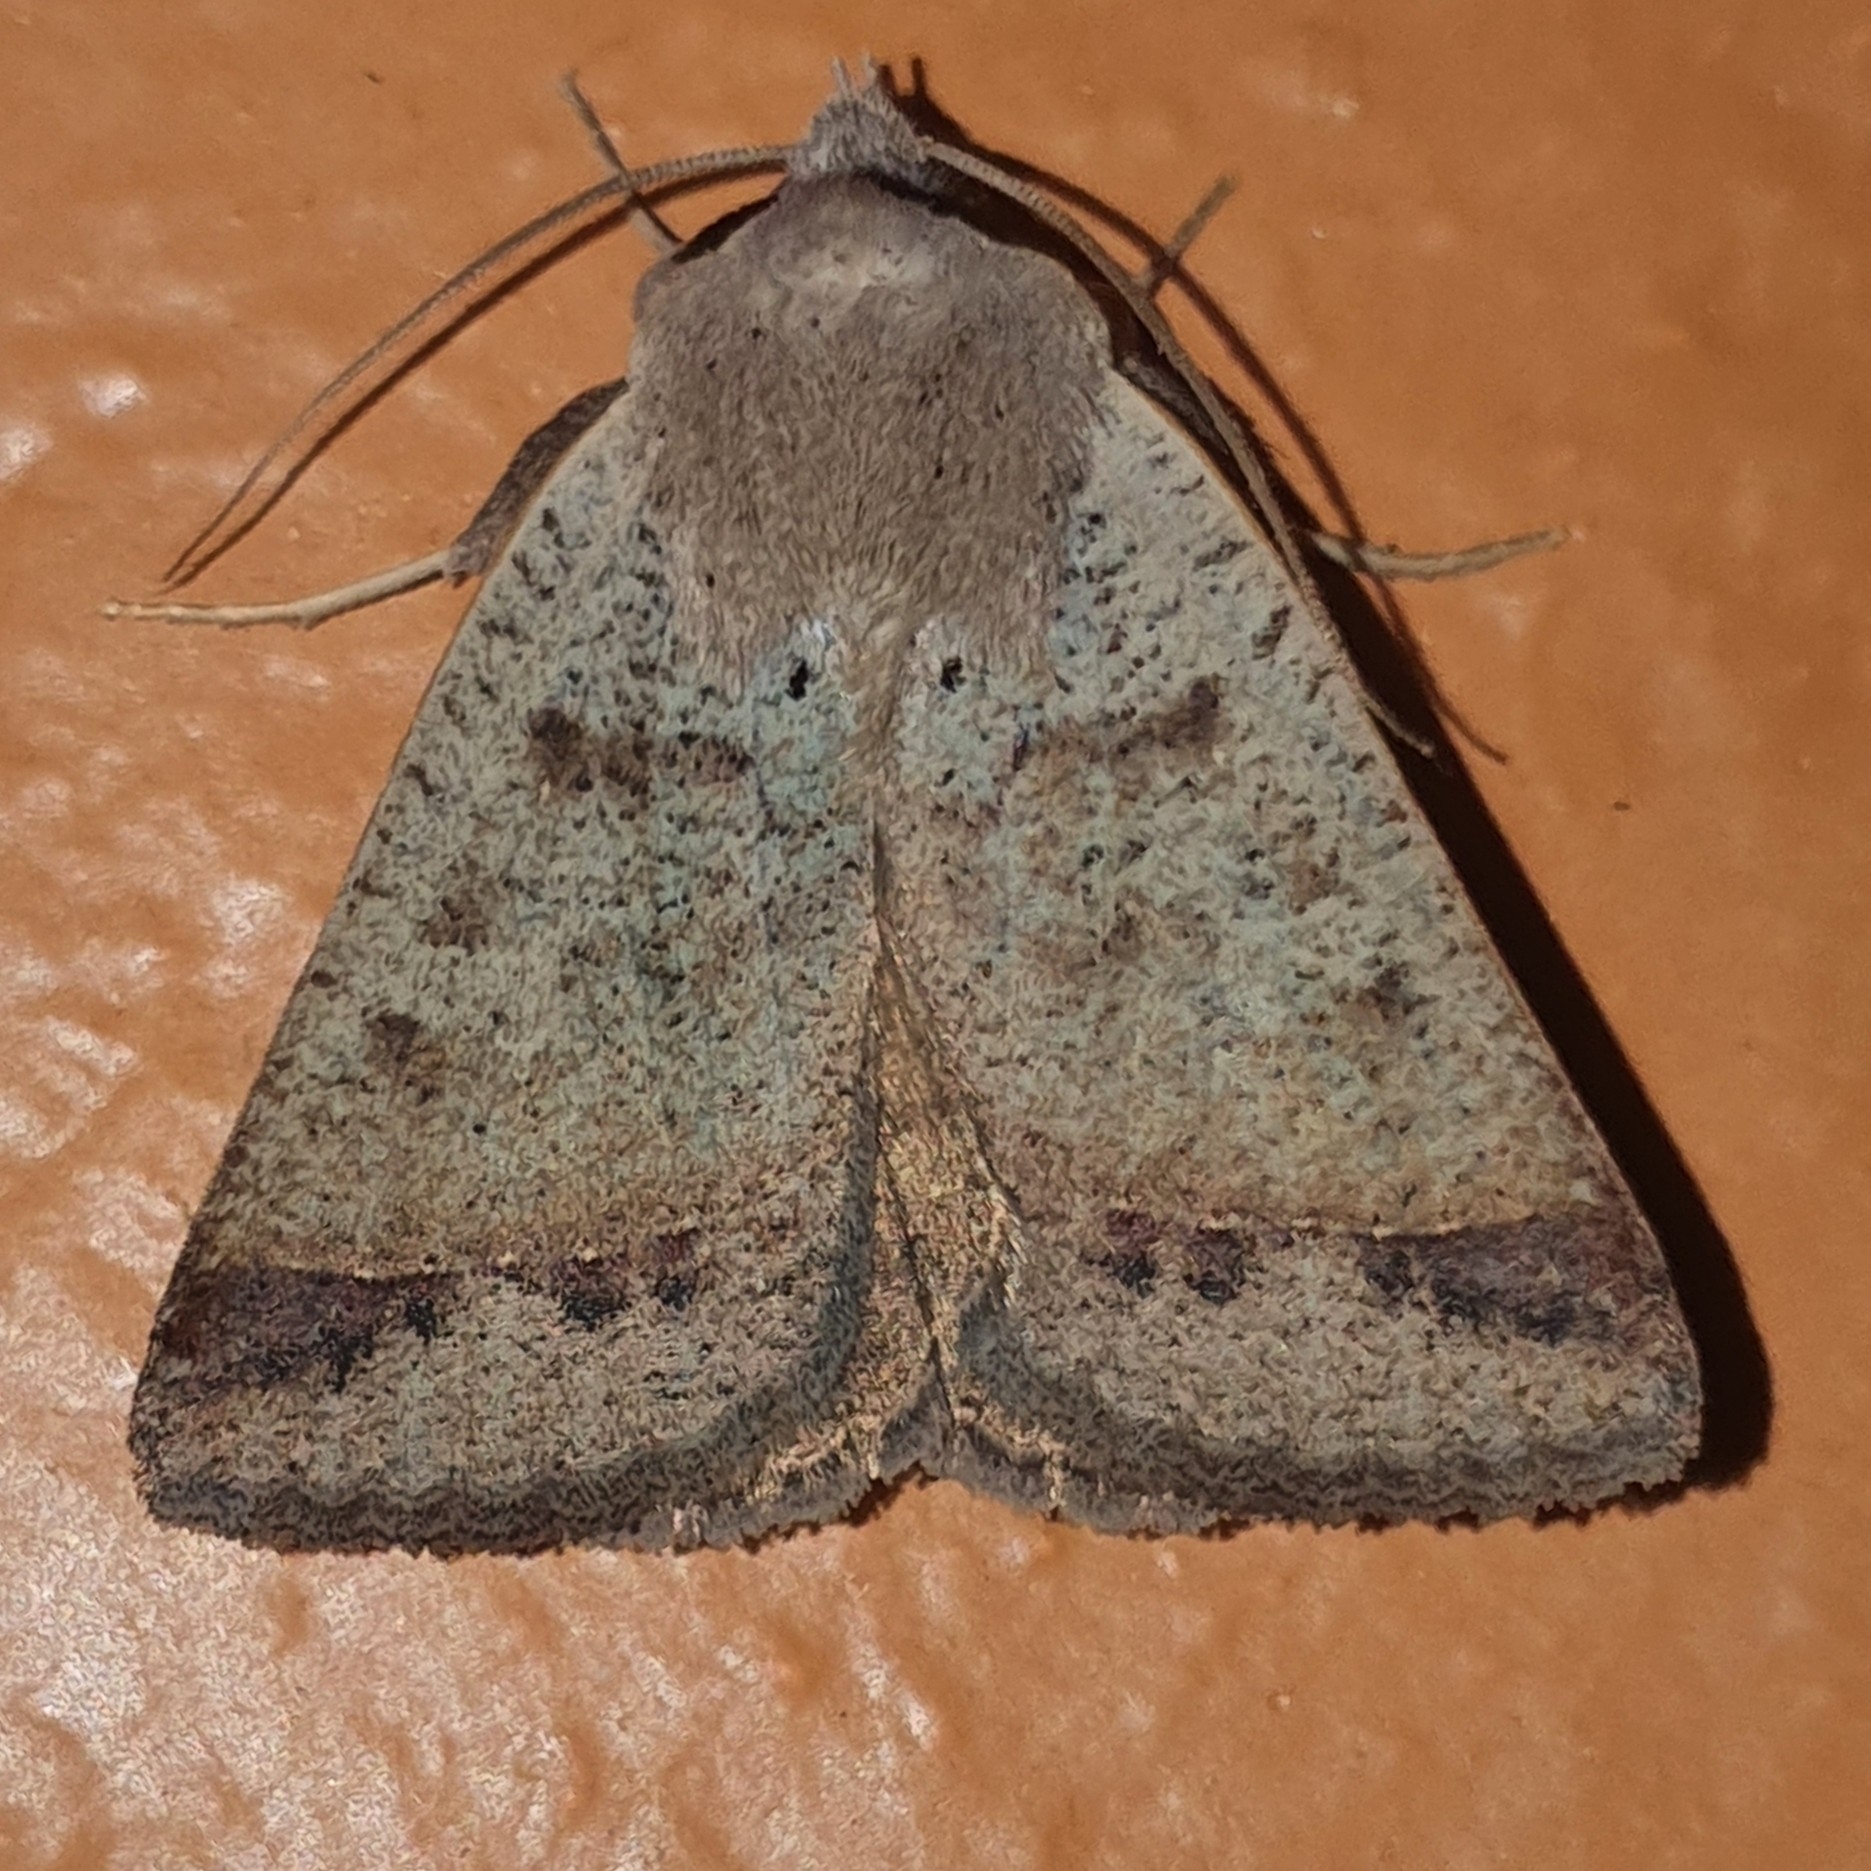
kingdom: Animalia
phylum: Arthropoda
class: Insecta
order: Lepidoptera
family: Erebidae
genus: Pantydia
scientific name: Pantydia sparsa
